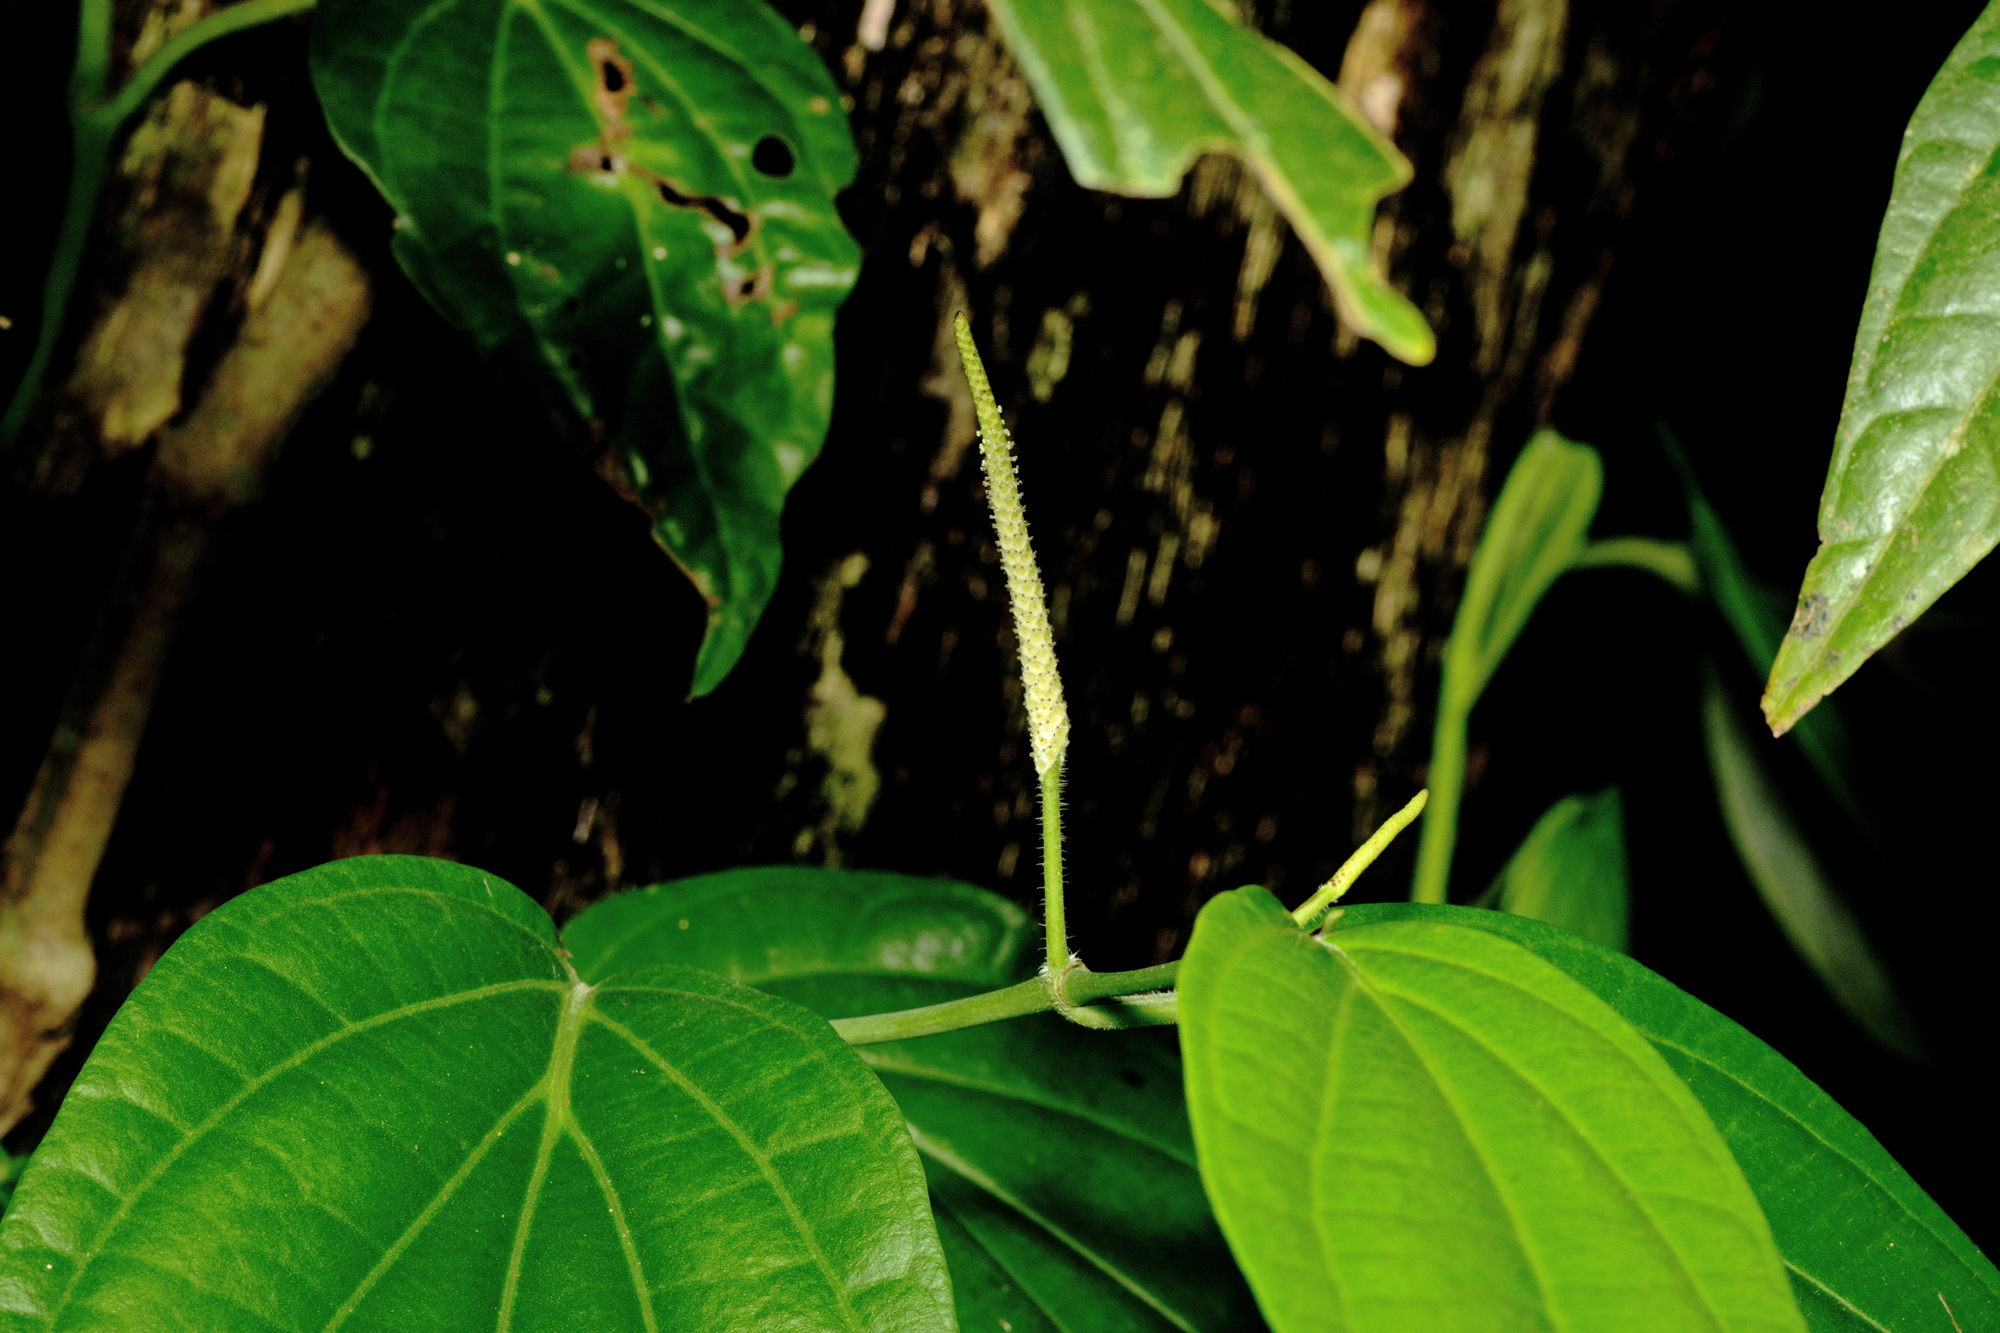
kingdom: Plantae
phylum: Tracheophyta
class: Magnoliopsida
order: Piperales
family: Piperaceae
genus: Piper
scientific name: Piper interruptum
